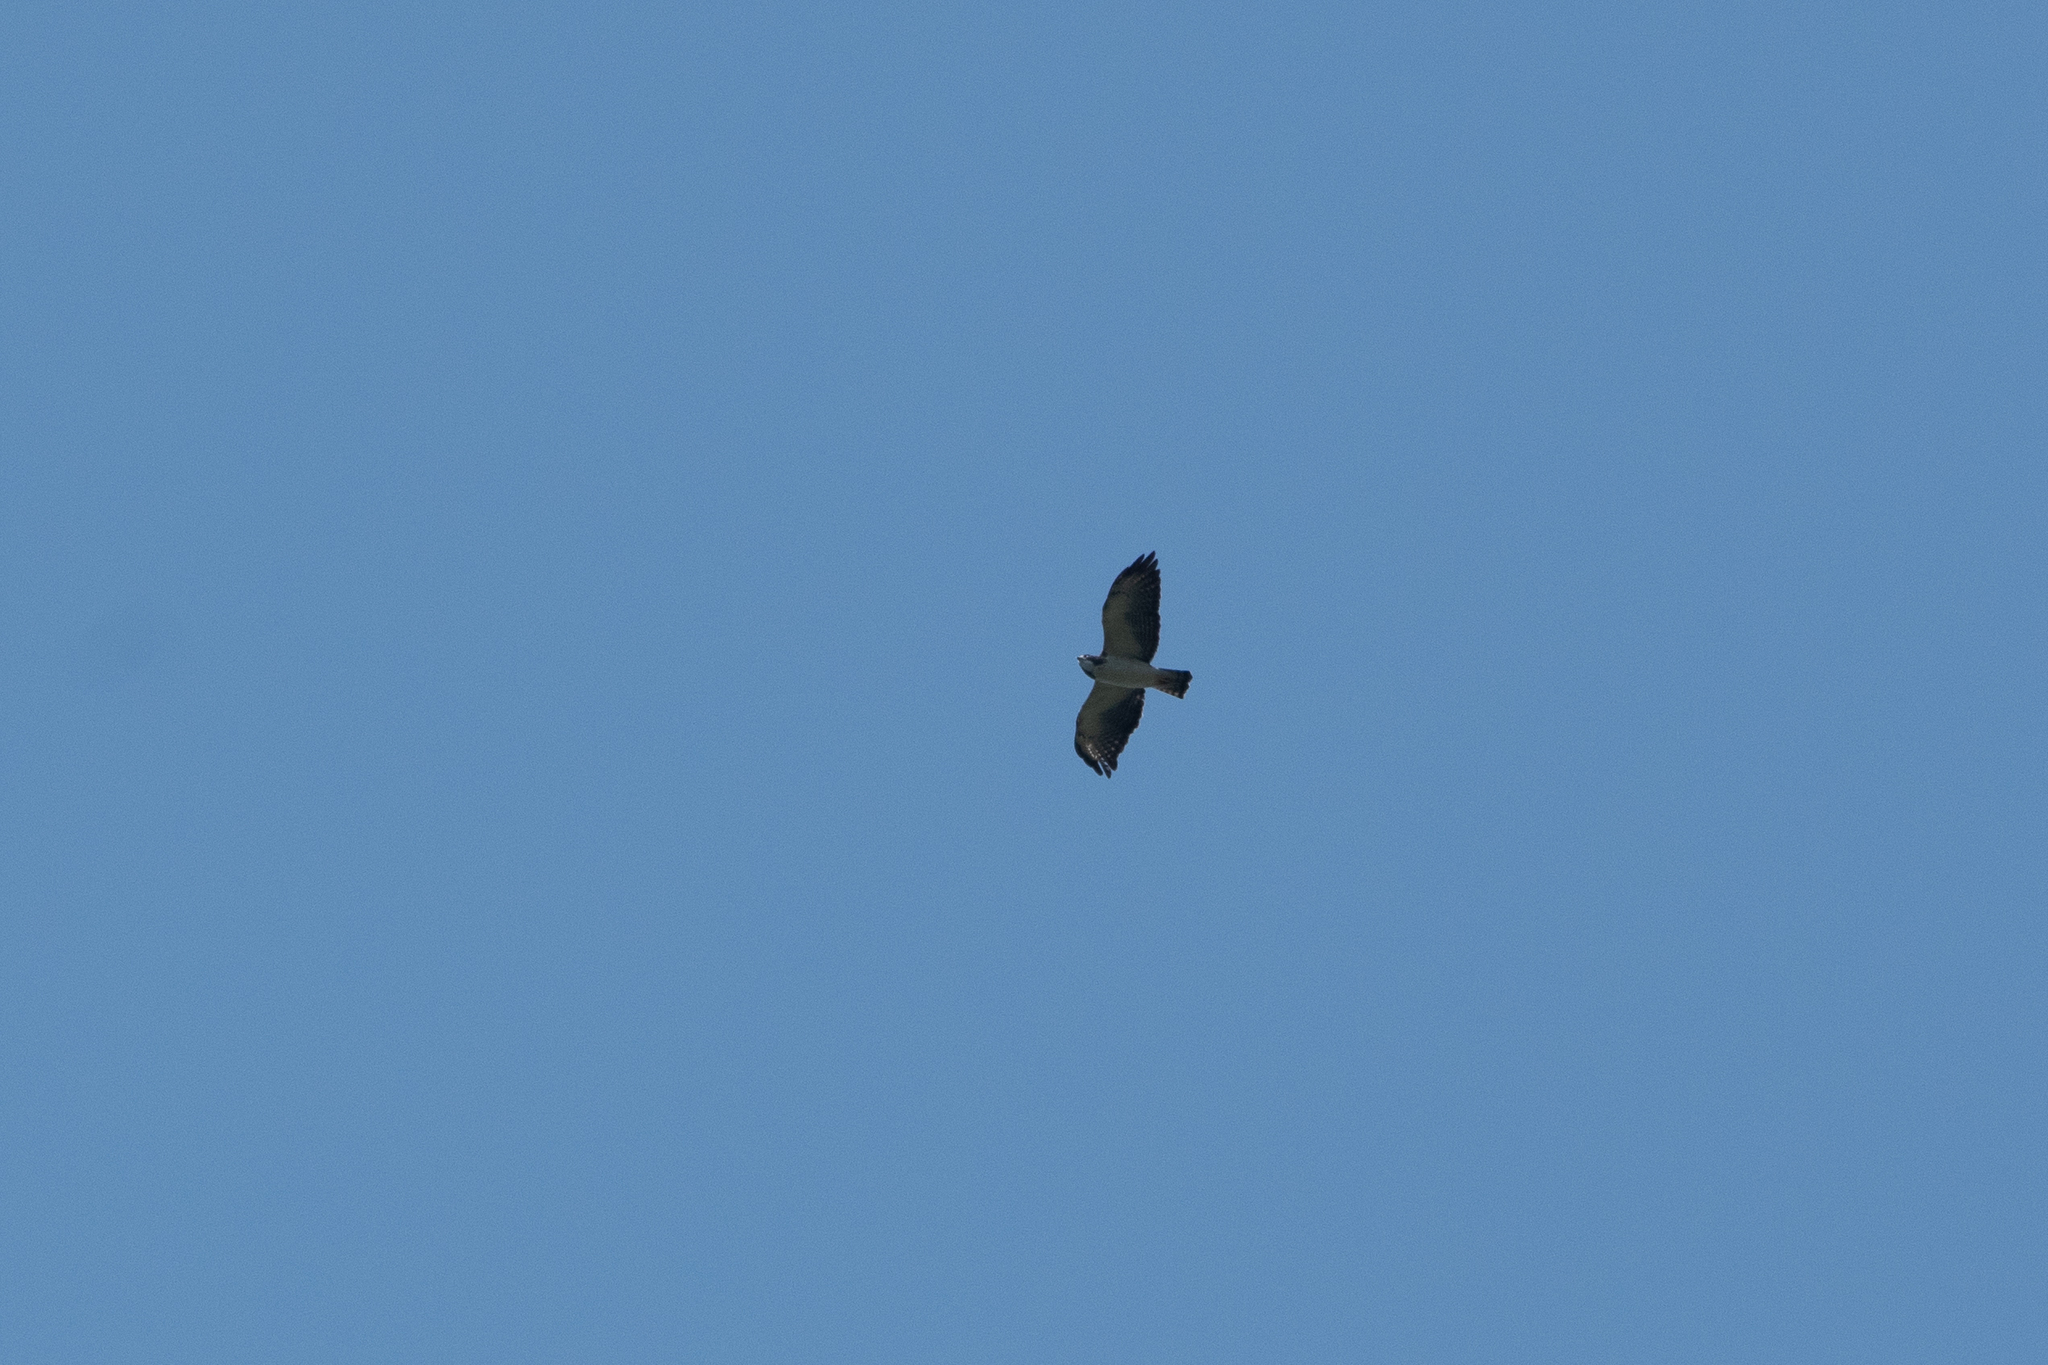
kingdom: Animalia
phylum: Chordata
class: Aves
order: Accipitriformes
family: Accipitridae
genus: Buteo
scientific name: Buteo brachyurus
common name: Short-tailed hawk
